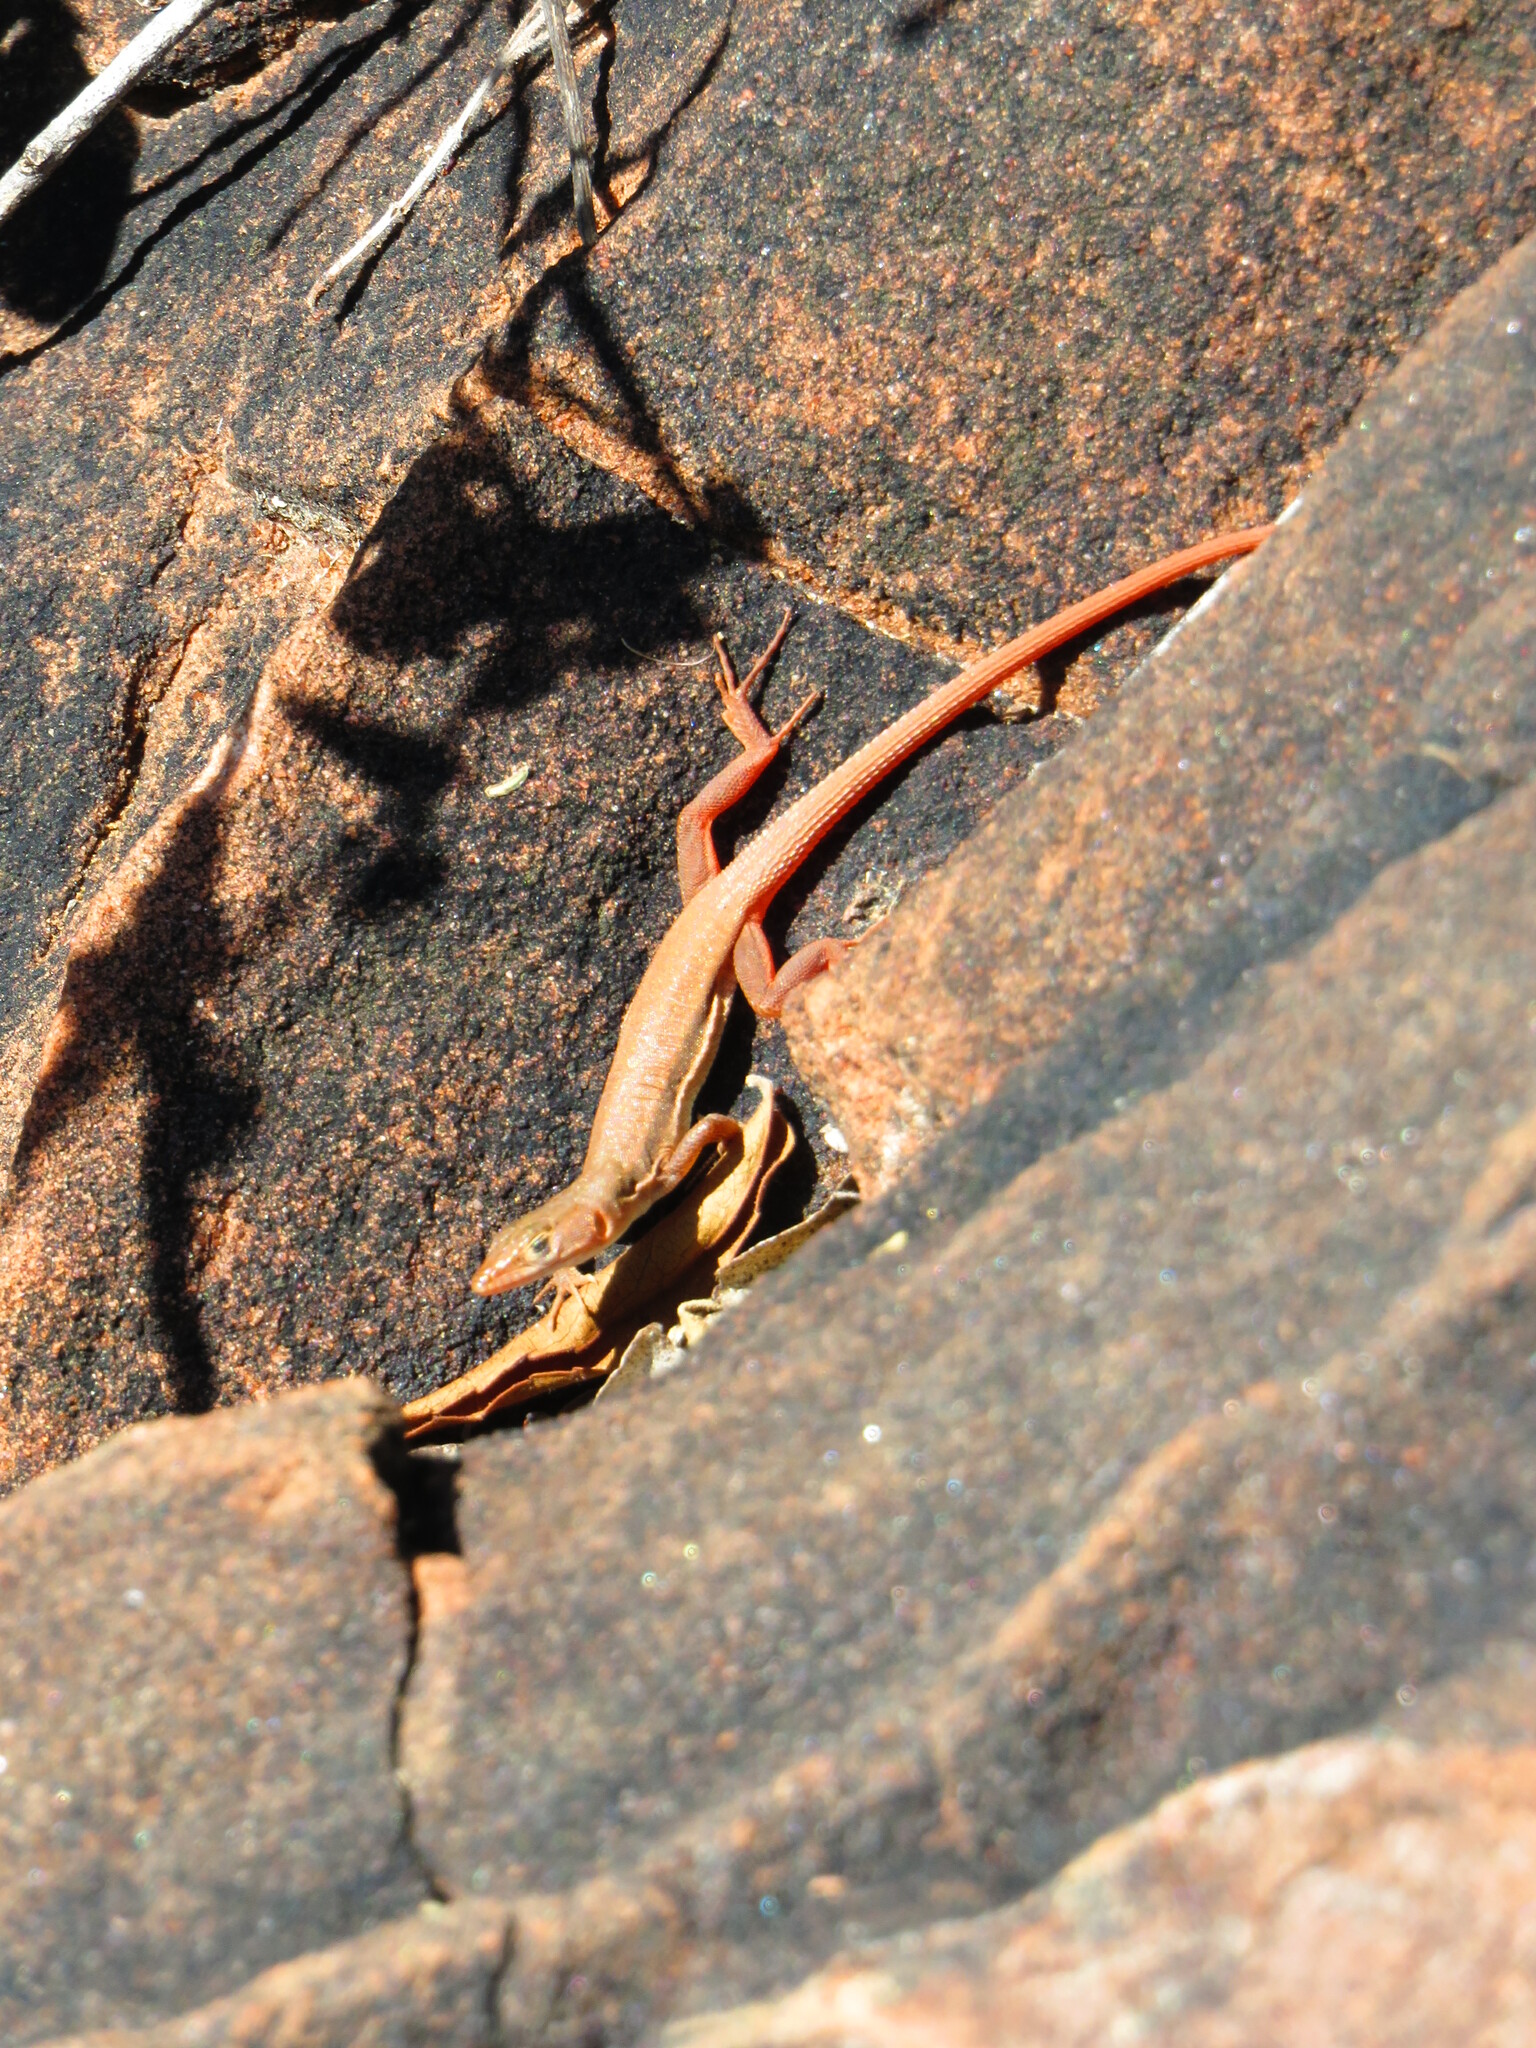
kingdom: Animalia
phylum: Chordata
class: Squamata
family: Lacertidae
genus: Pedioplanis
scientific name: Pedioplanis rubens
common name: Ruben's sand lizard
